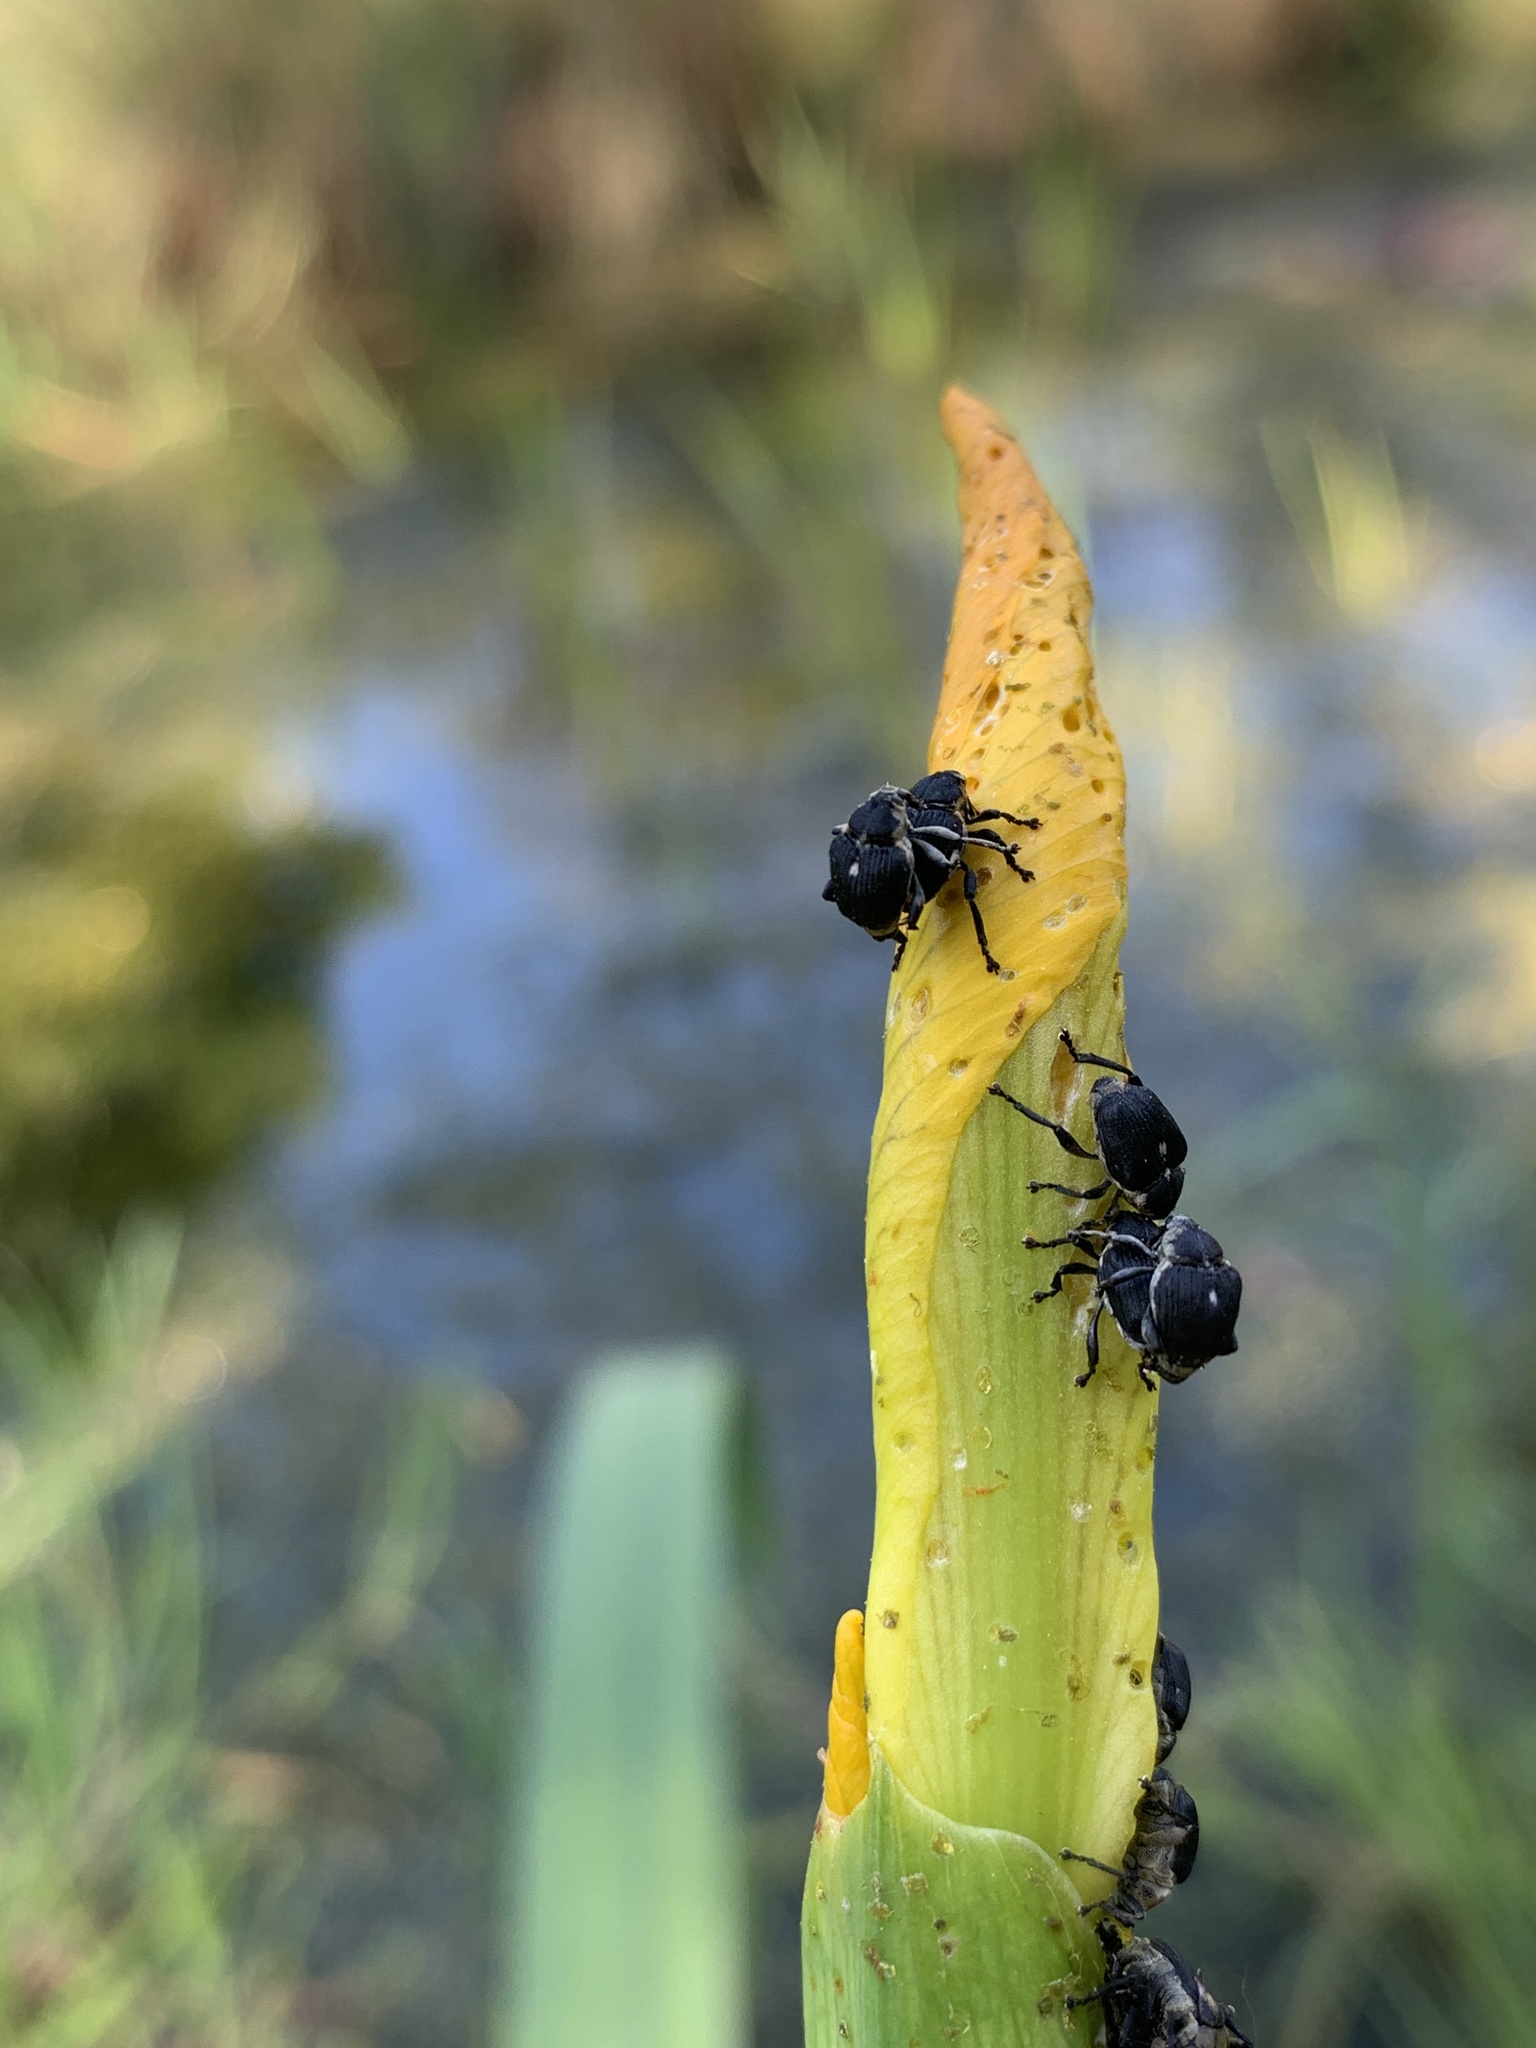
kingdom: Animalia
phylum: Arthropoda
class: Insecta
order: Coleoptera
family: Curculionidae
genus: Mononychus
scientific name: Mononychus punctumalbum
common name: Iris weevil
